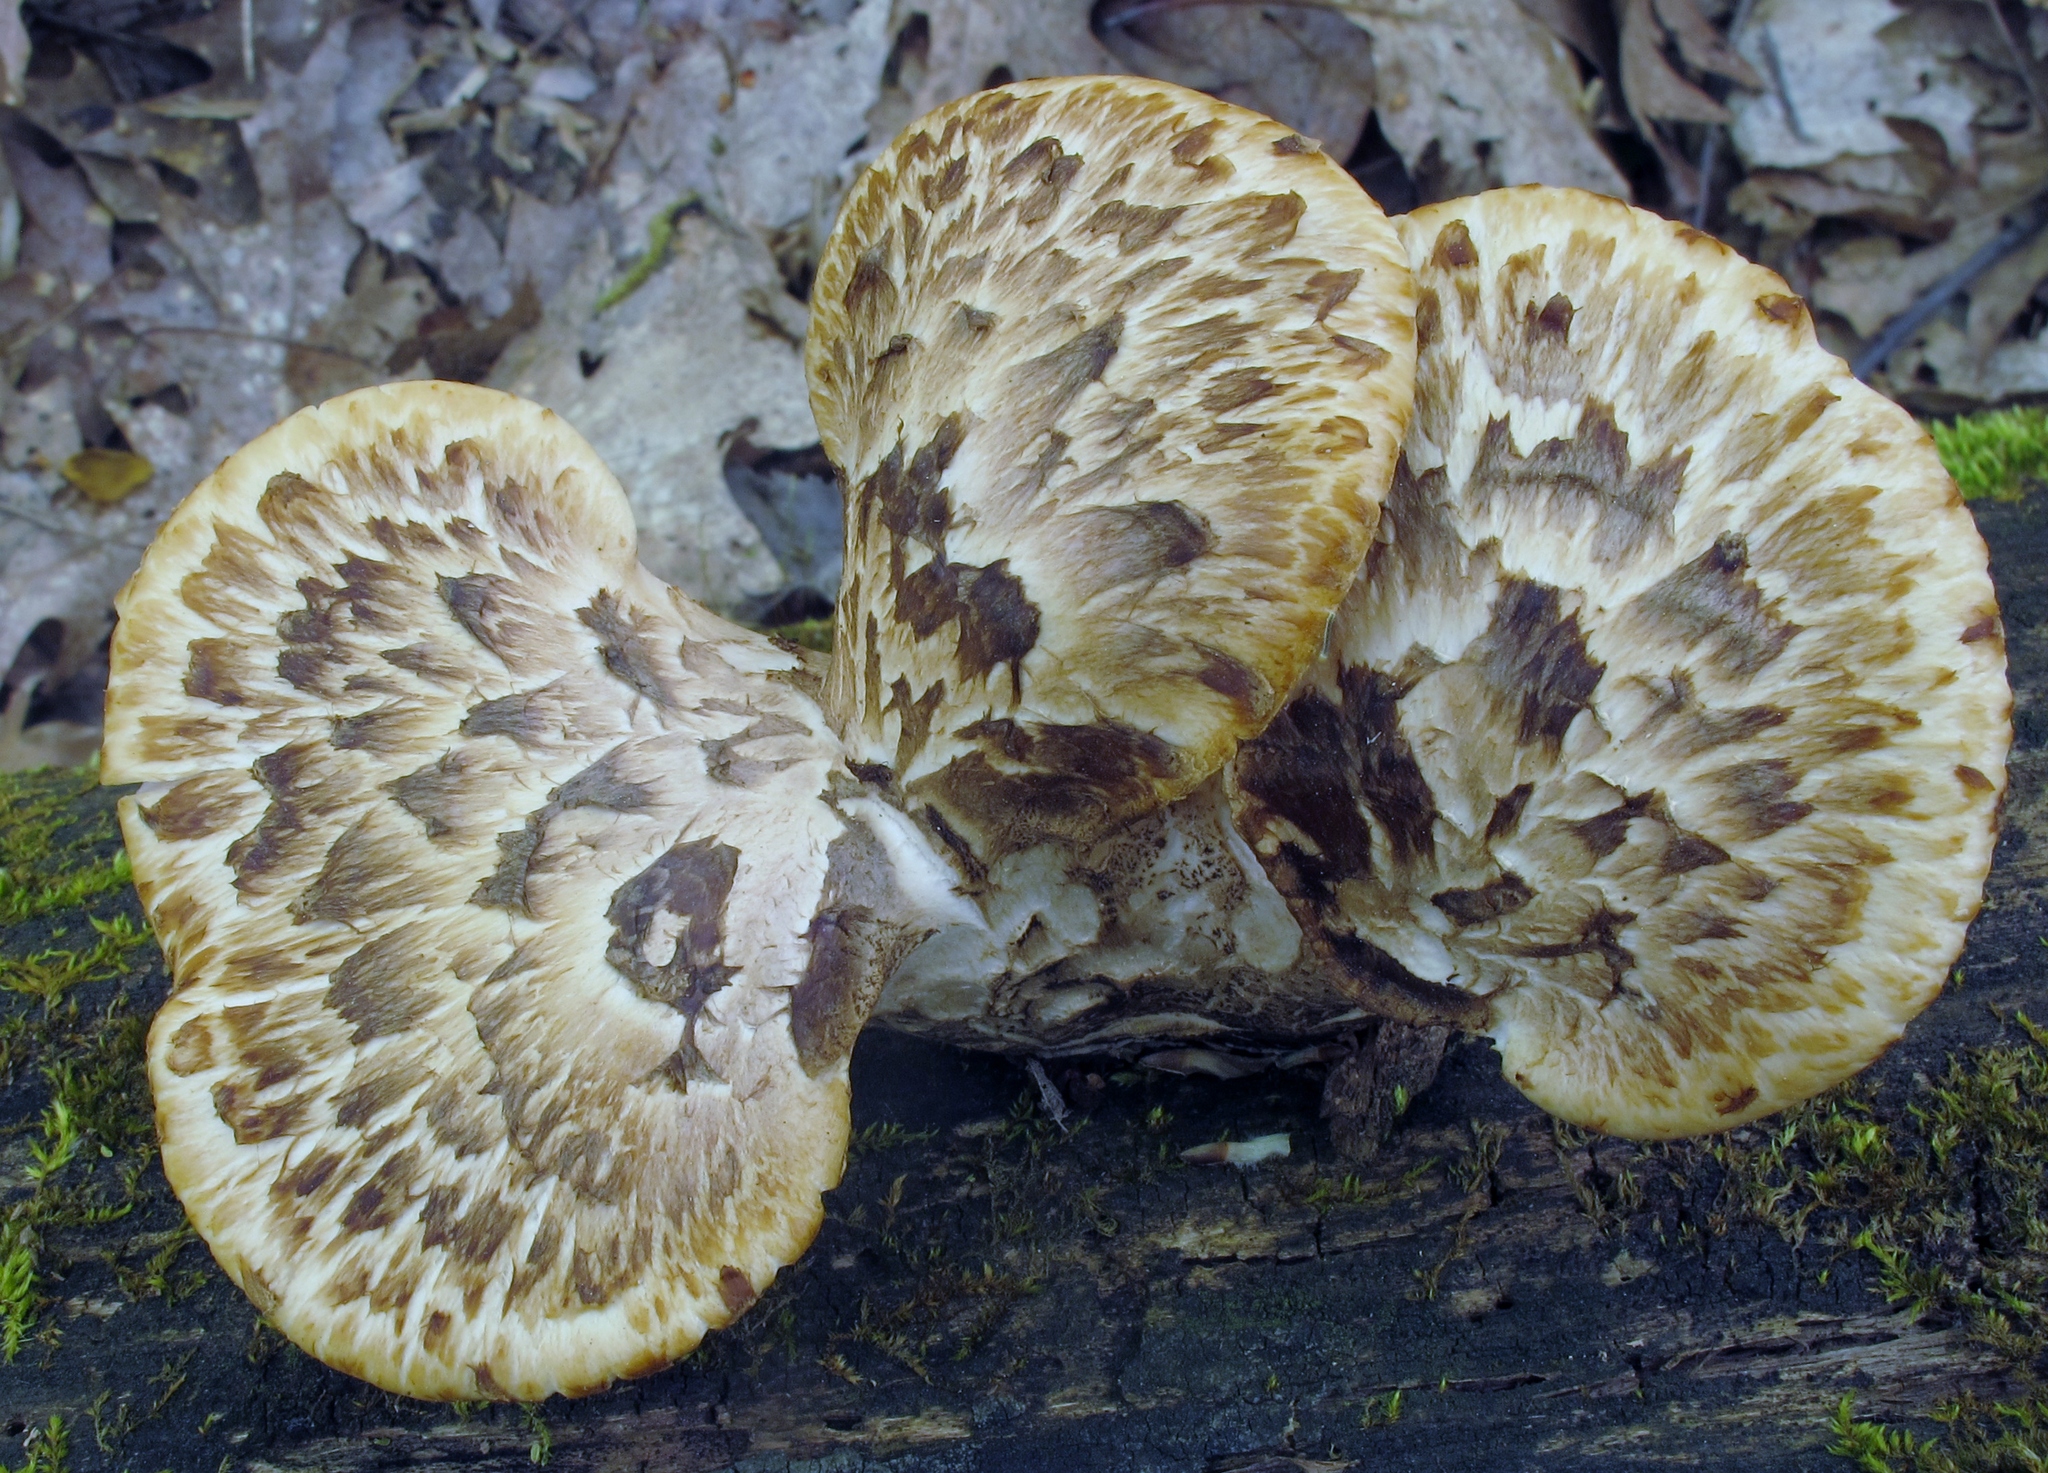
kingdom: Fungi
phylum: Basidiomycota
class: Agaricomycetes
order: Polyporales
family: Polyporaceae
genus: Cerioporus
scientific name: Cerioporus squamosus
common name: Dryad's saddle
